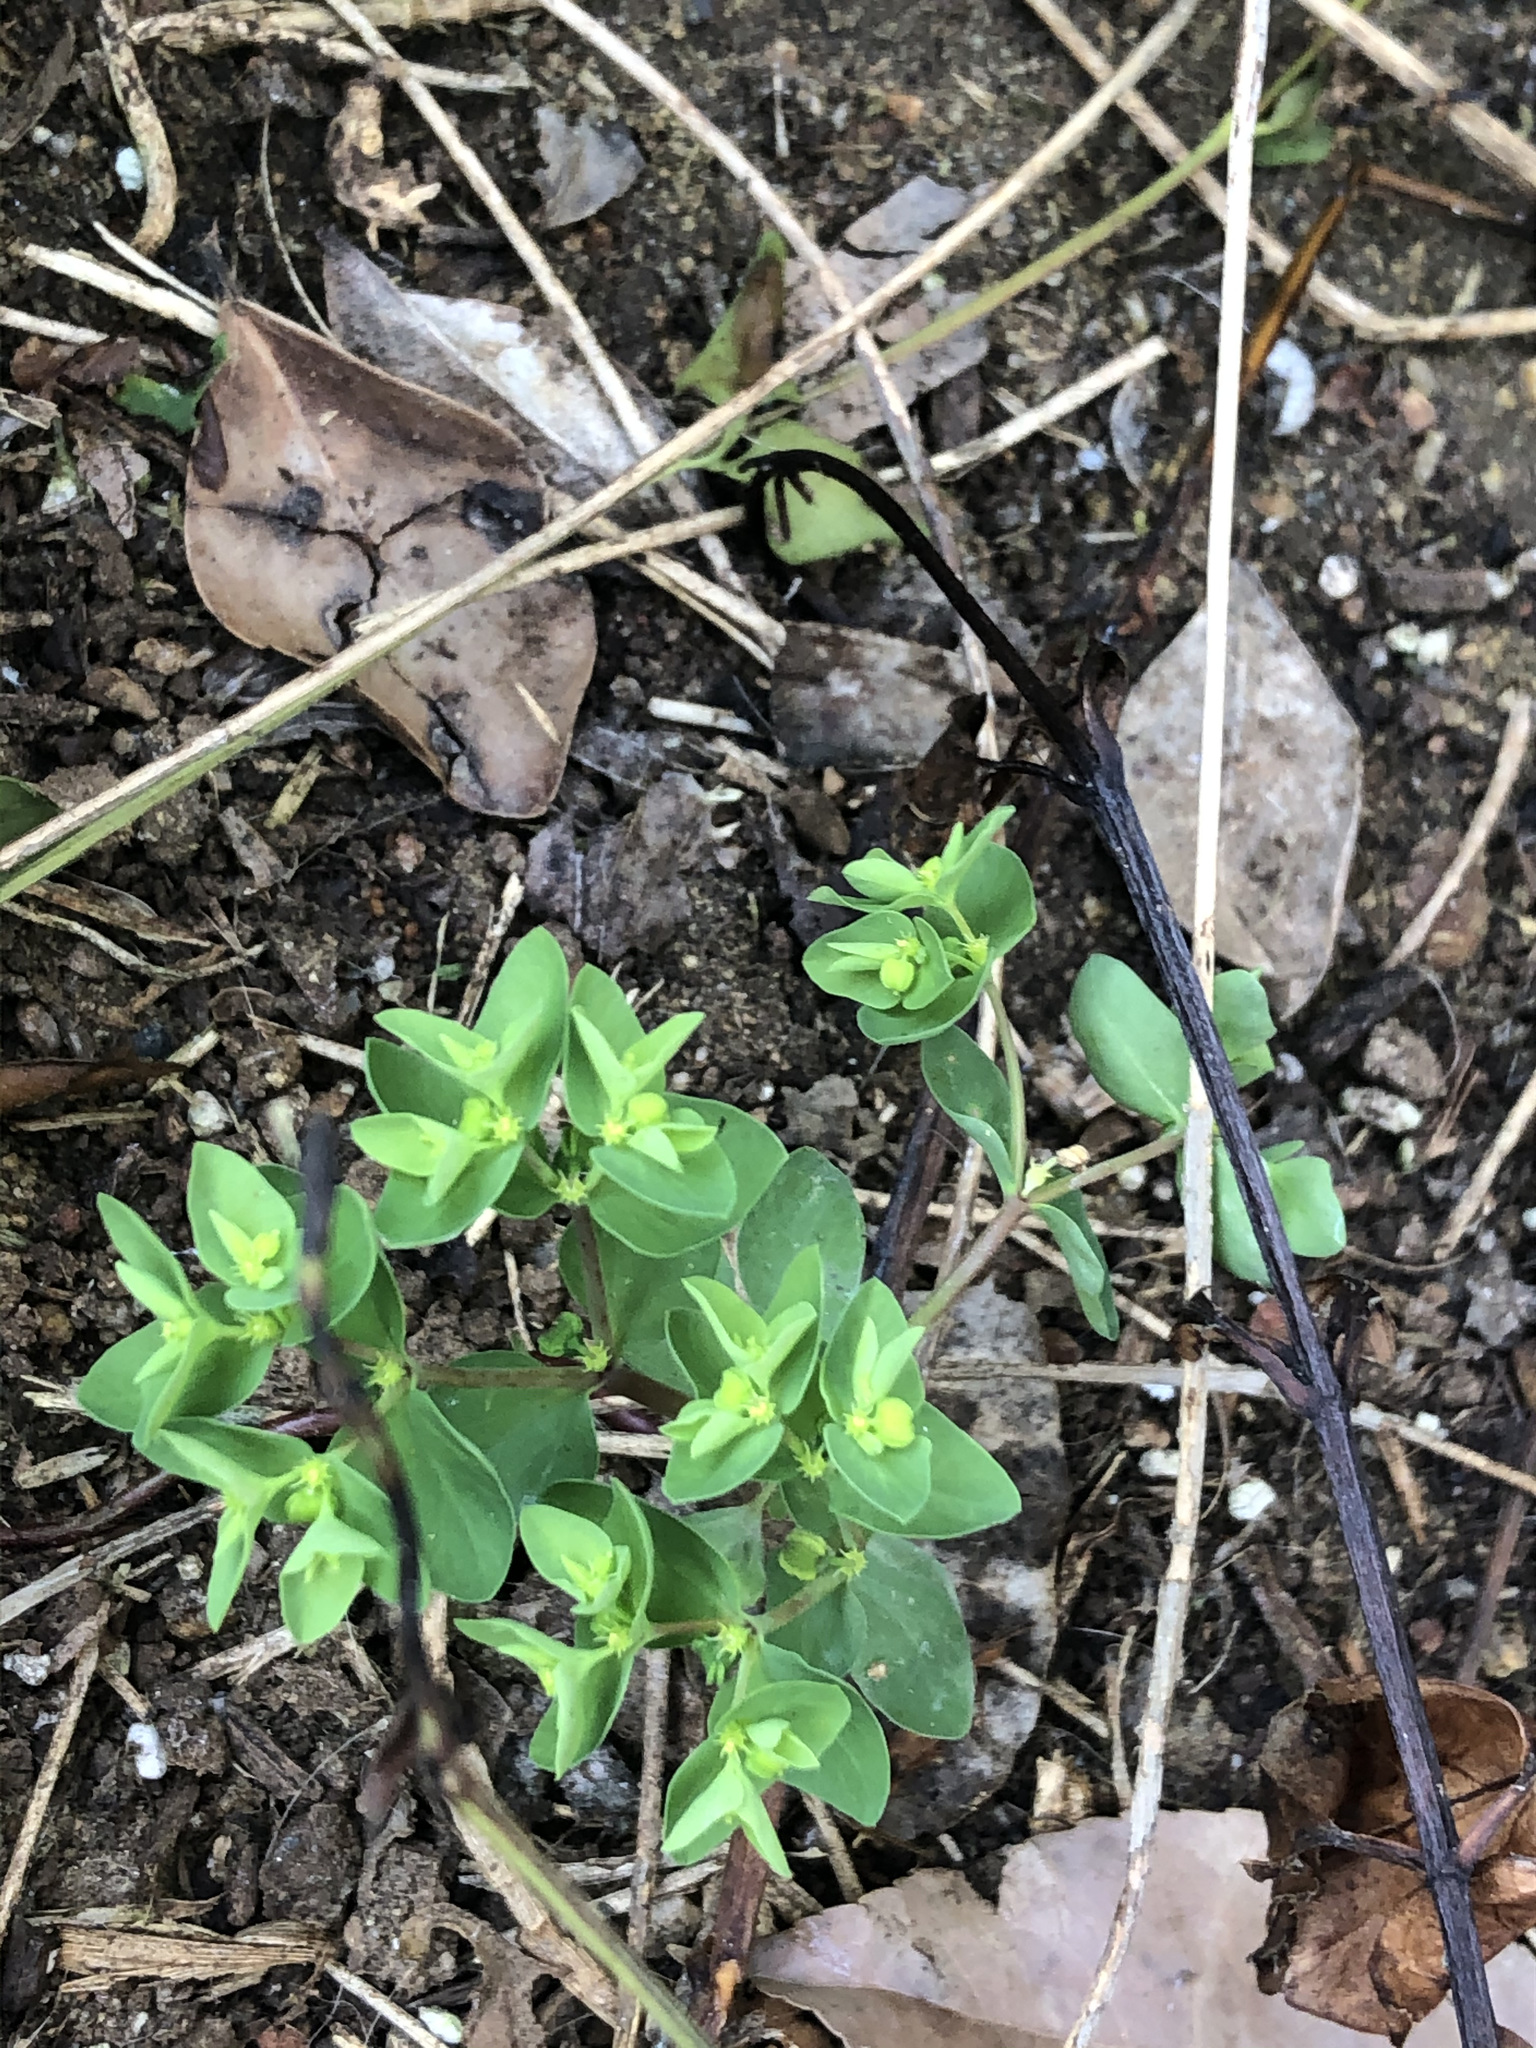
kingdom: Plantae
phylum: Tracheophyta
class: Magnoliopsida
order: Malpighiales
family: Euphorbiaceae
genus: Euphorbia
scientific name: Euphorbia peplus
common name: Petty spurge
